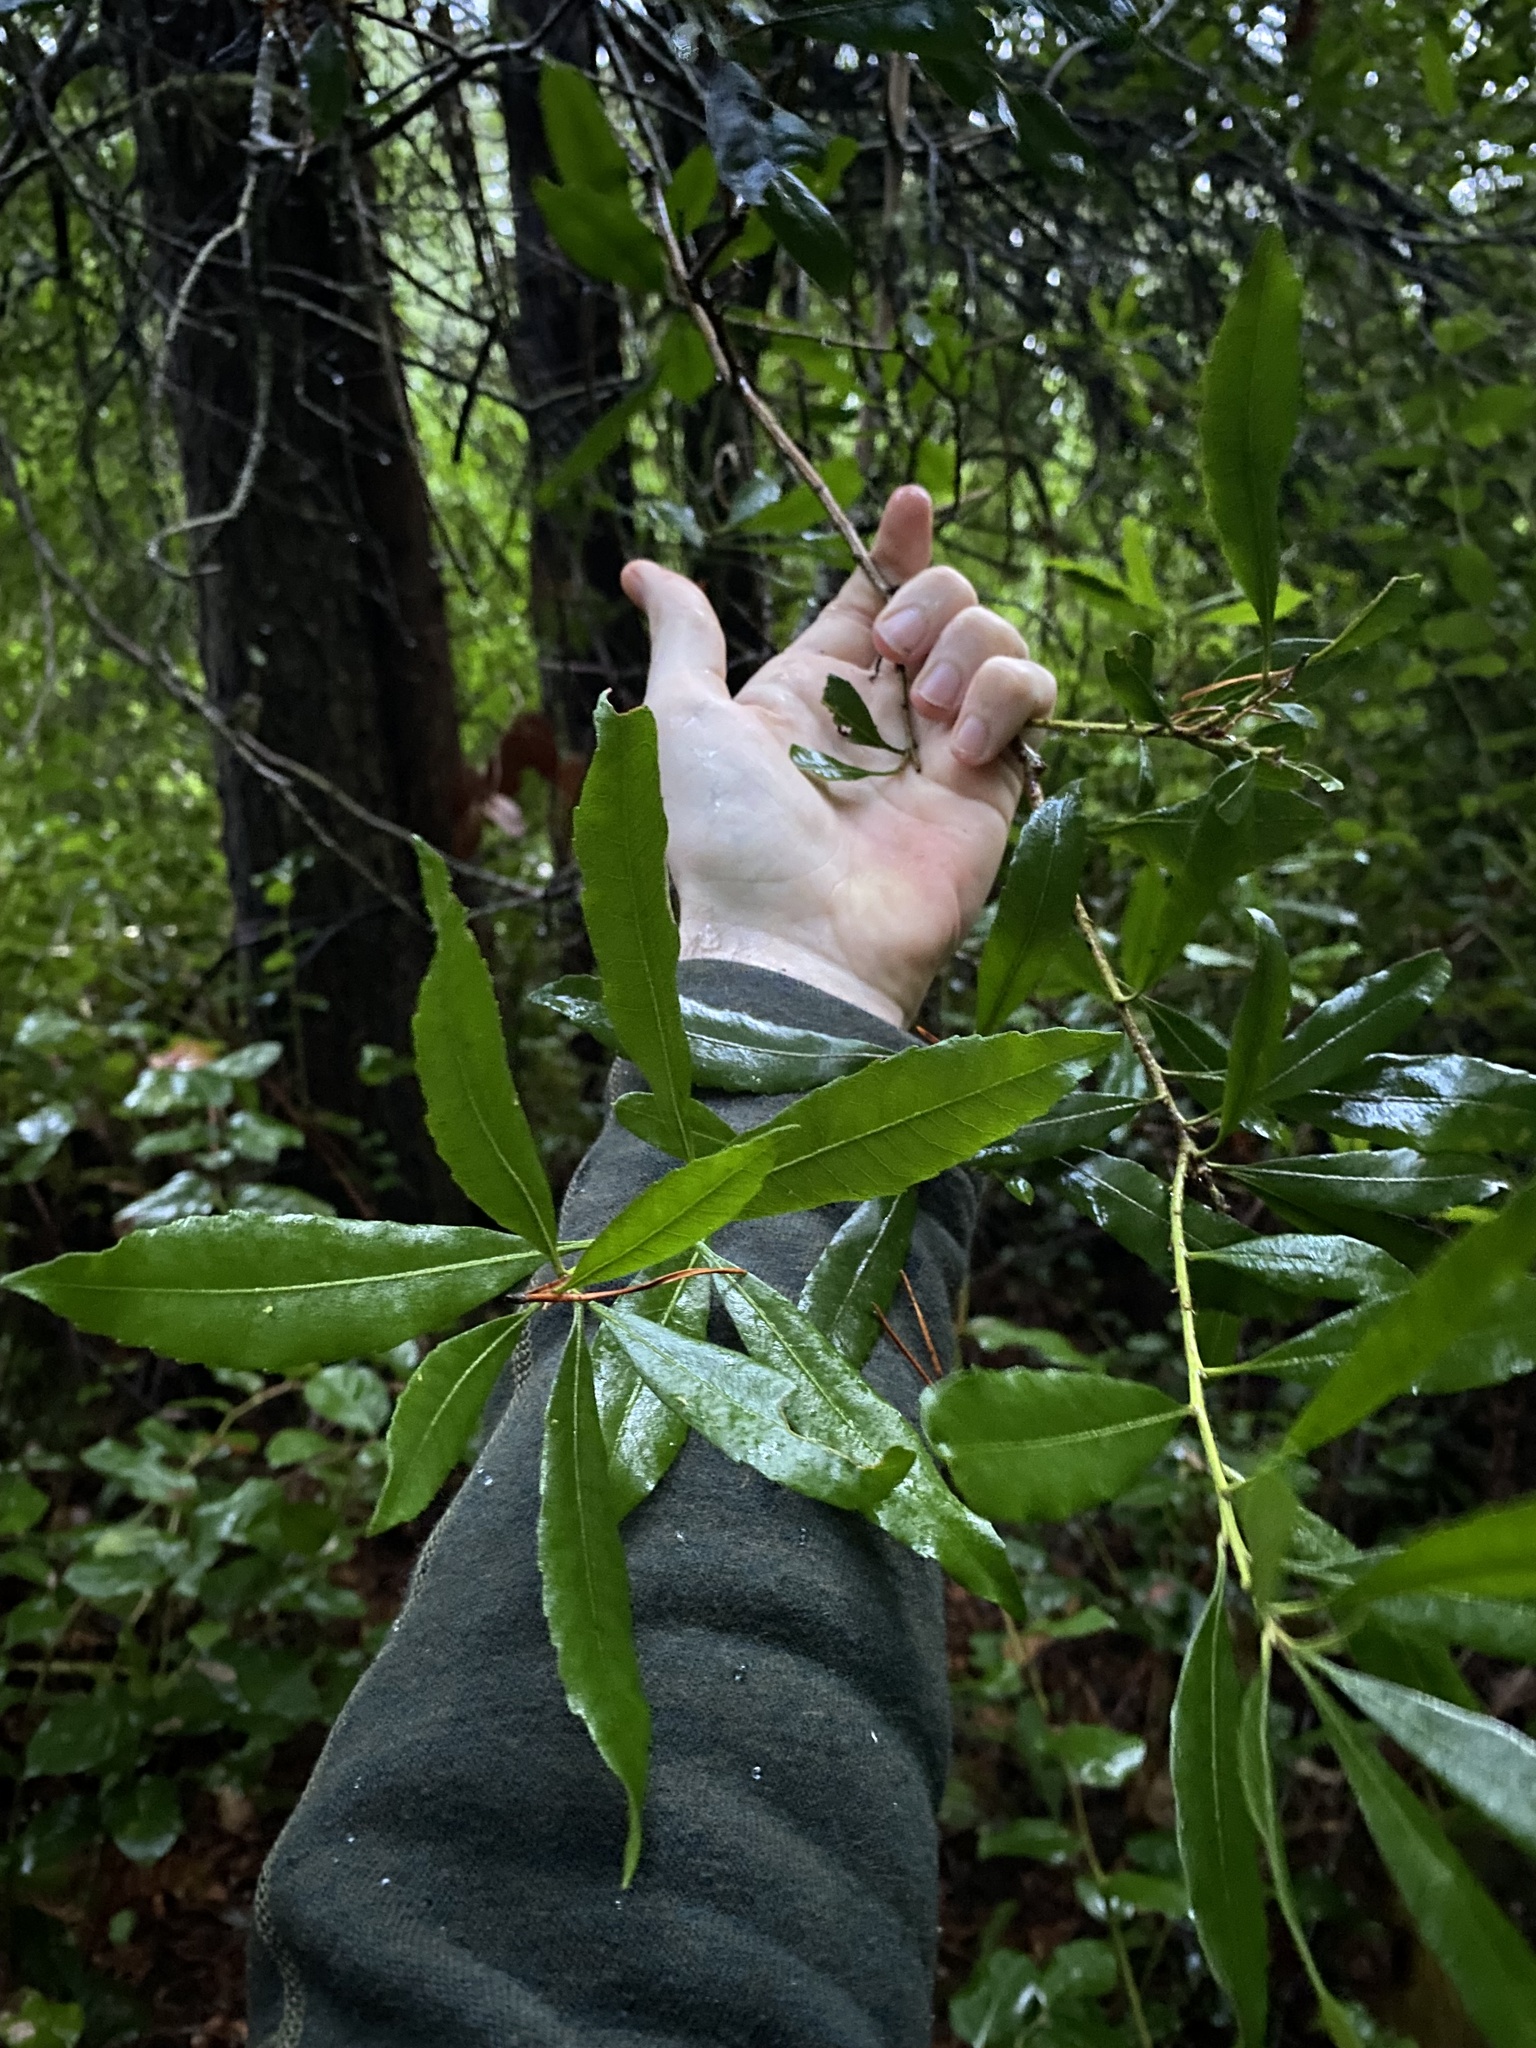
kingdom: Plantae
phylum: Tracheophyta
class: Magnoliopsida
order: Fagales
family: Myricaceae
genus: Morella
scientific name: Morella californica
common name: California wax-myrtle
